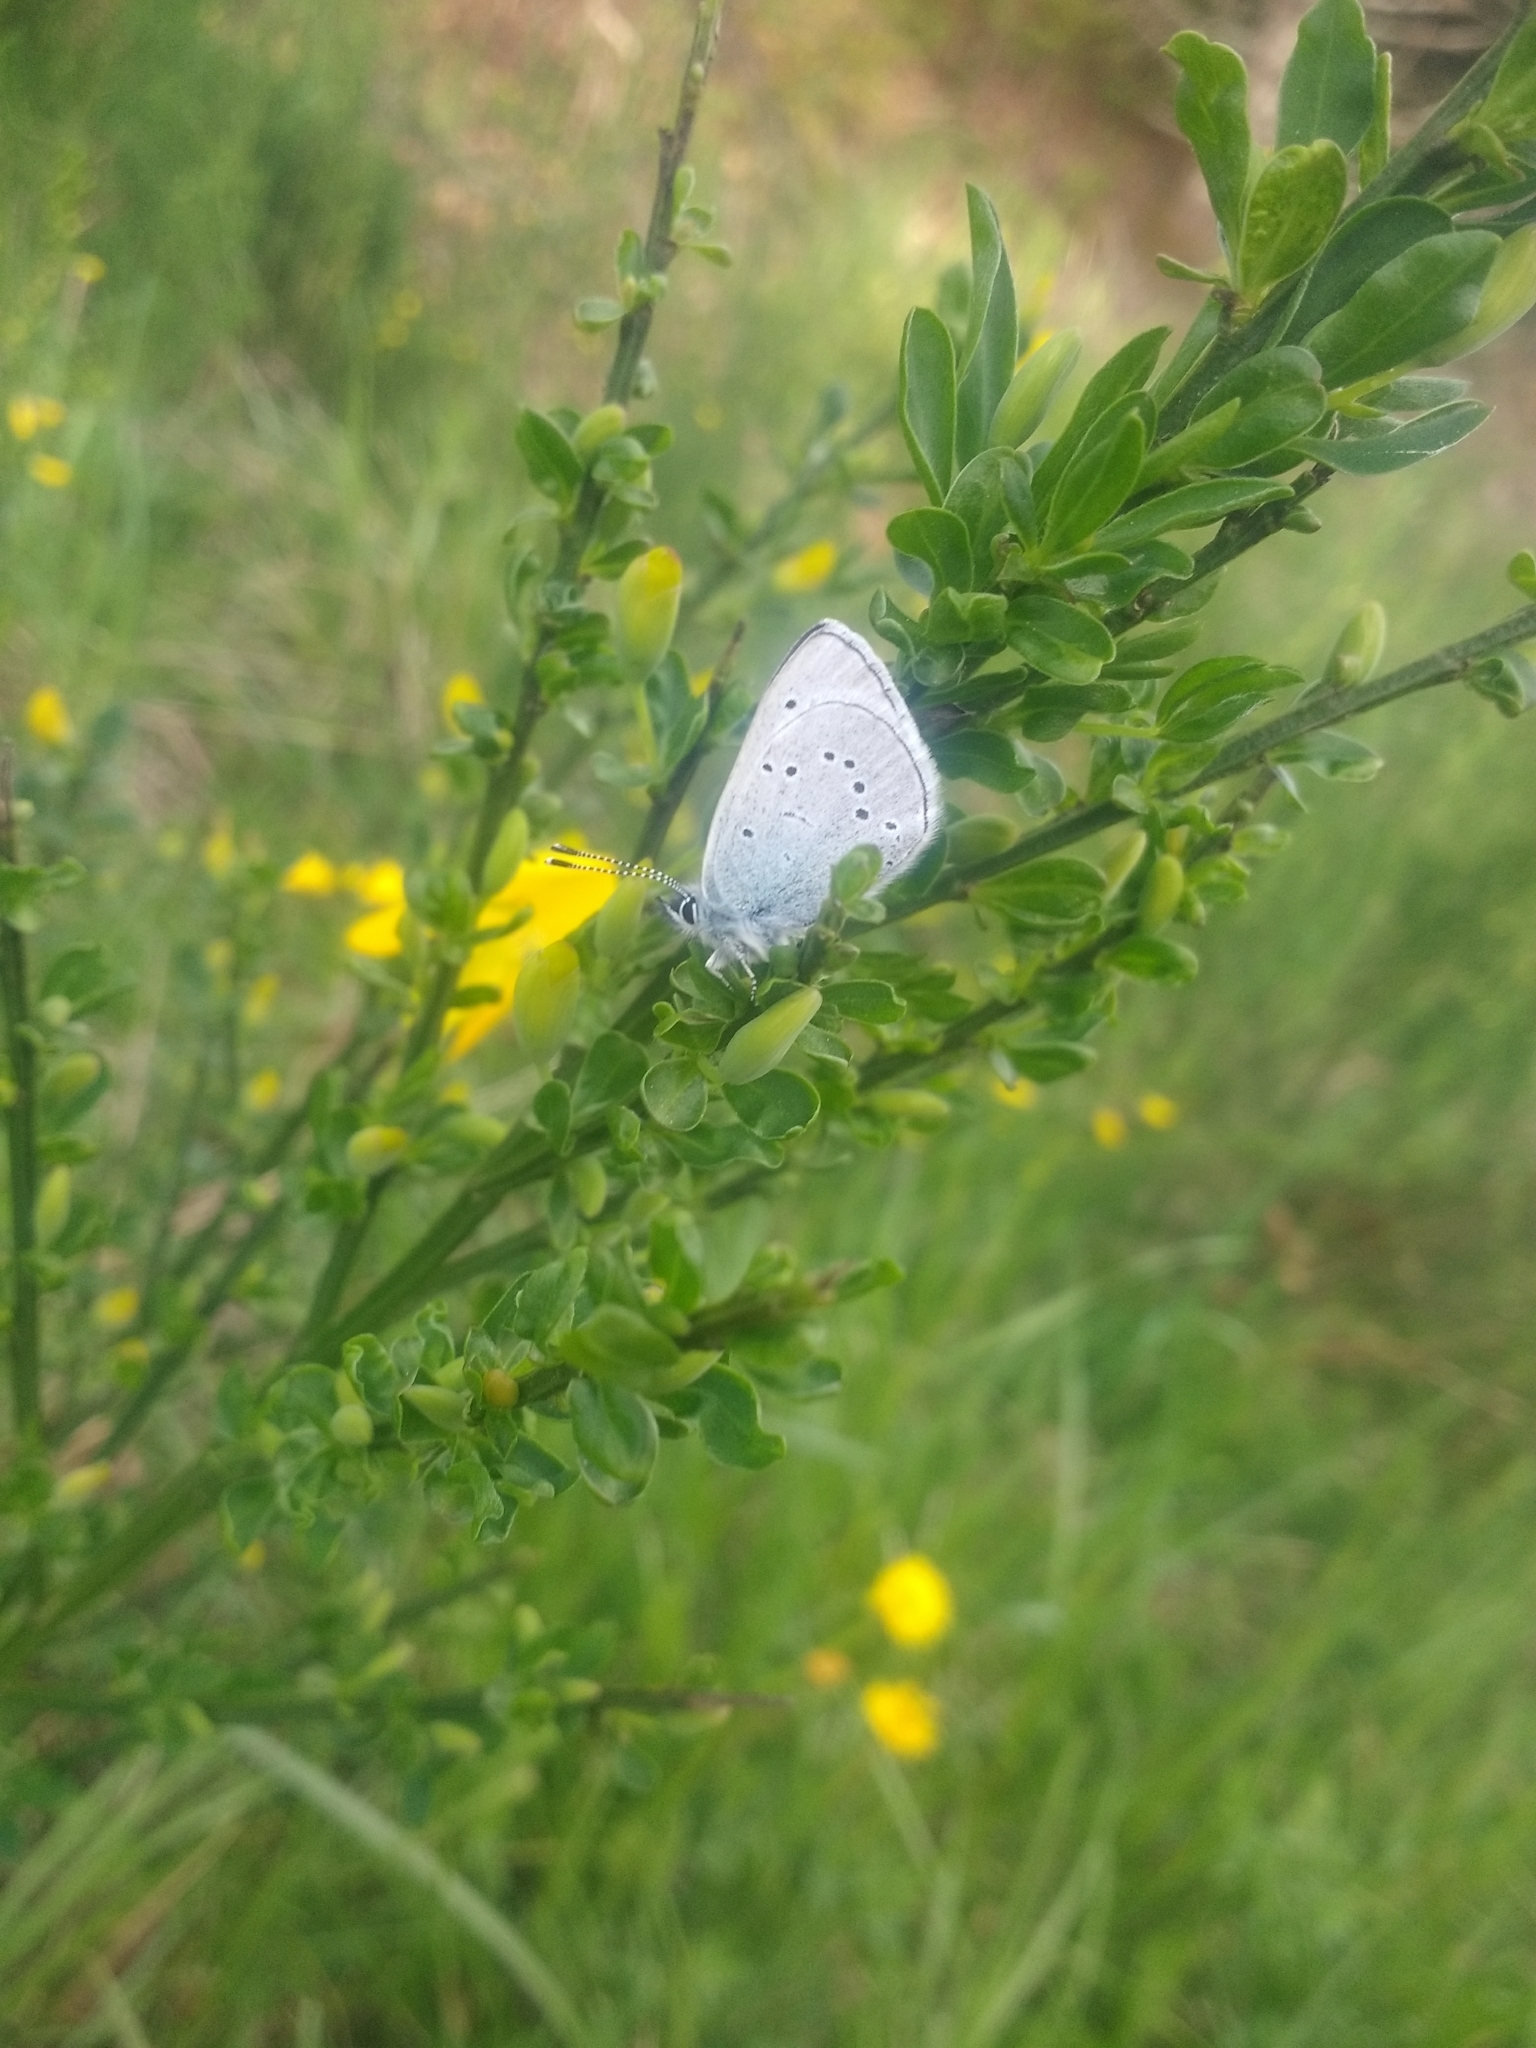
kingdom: Animalia
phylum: Arthropoda
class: Insecta
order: Lepidoptera
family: Lycaenidae
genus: Glaucopsyche
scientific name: Glaucopsyche lygdamus
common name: Silvery blue
